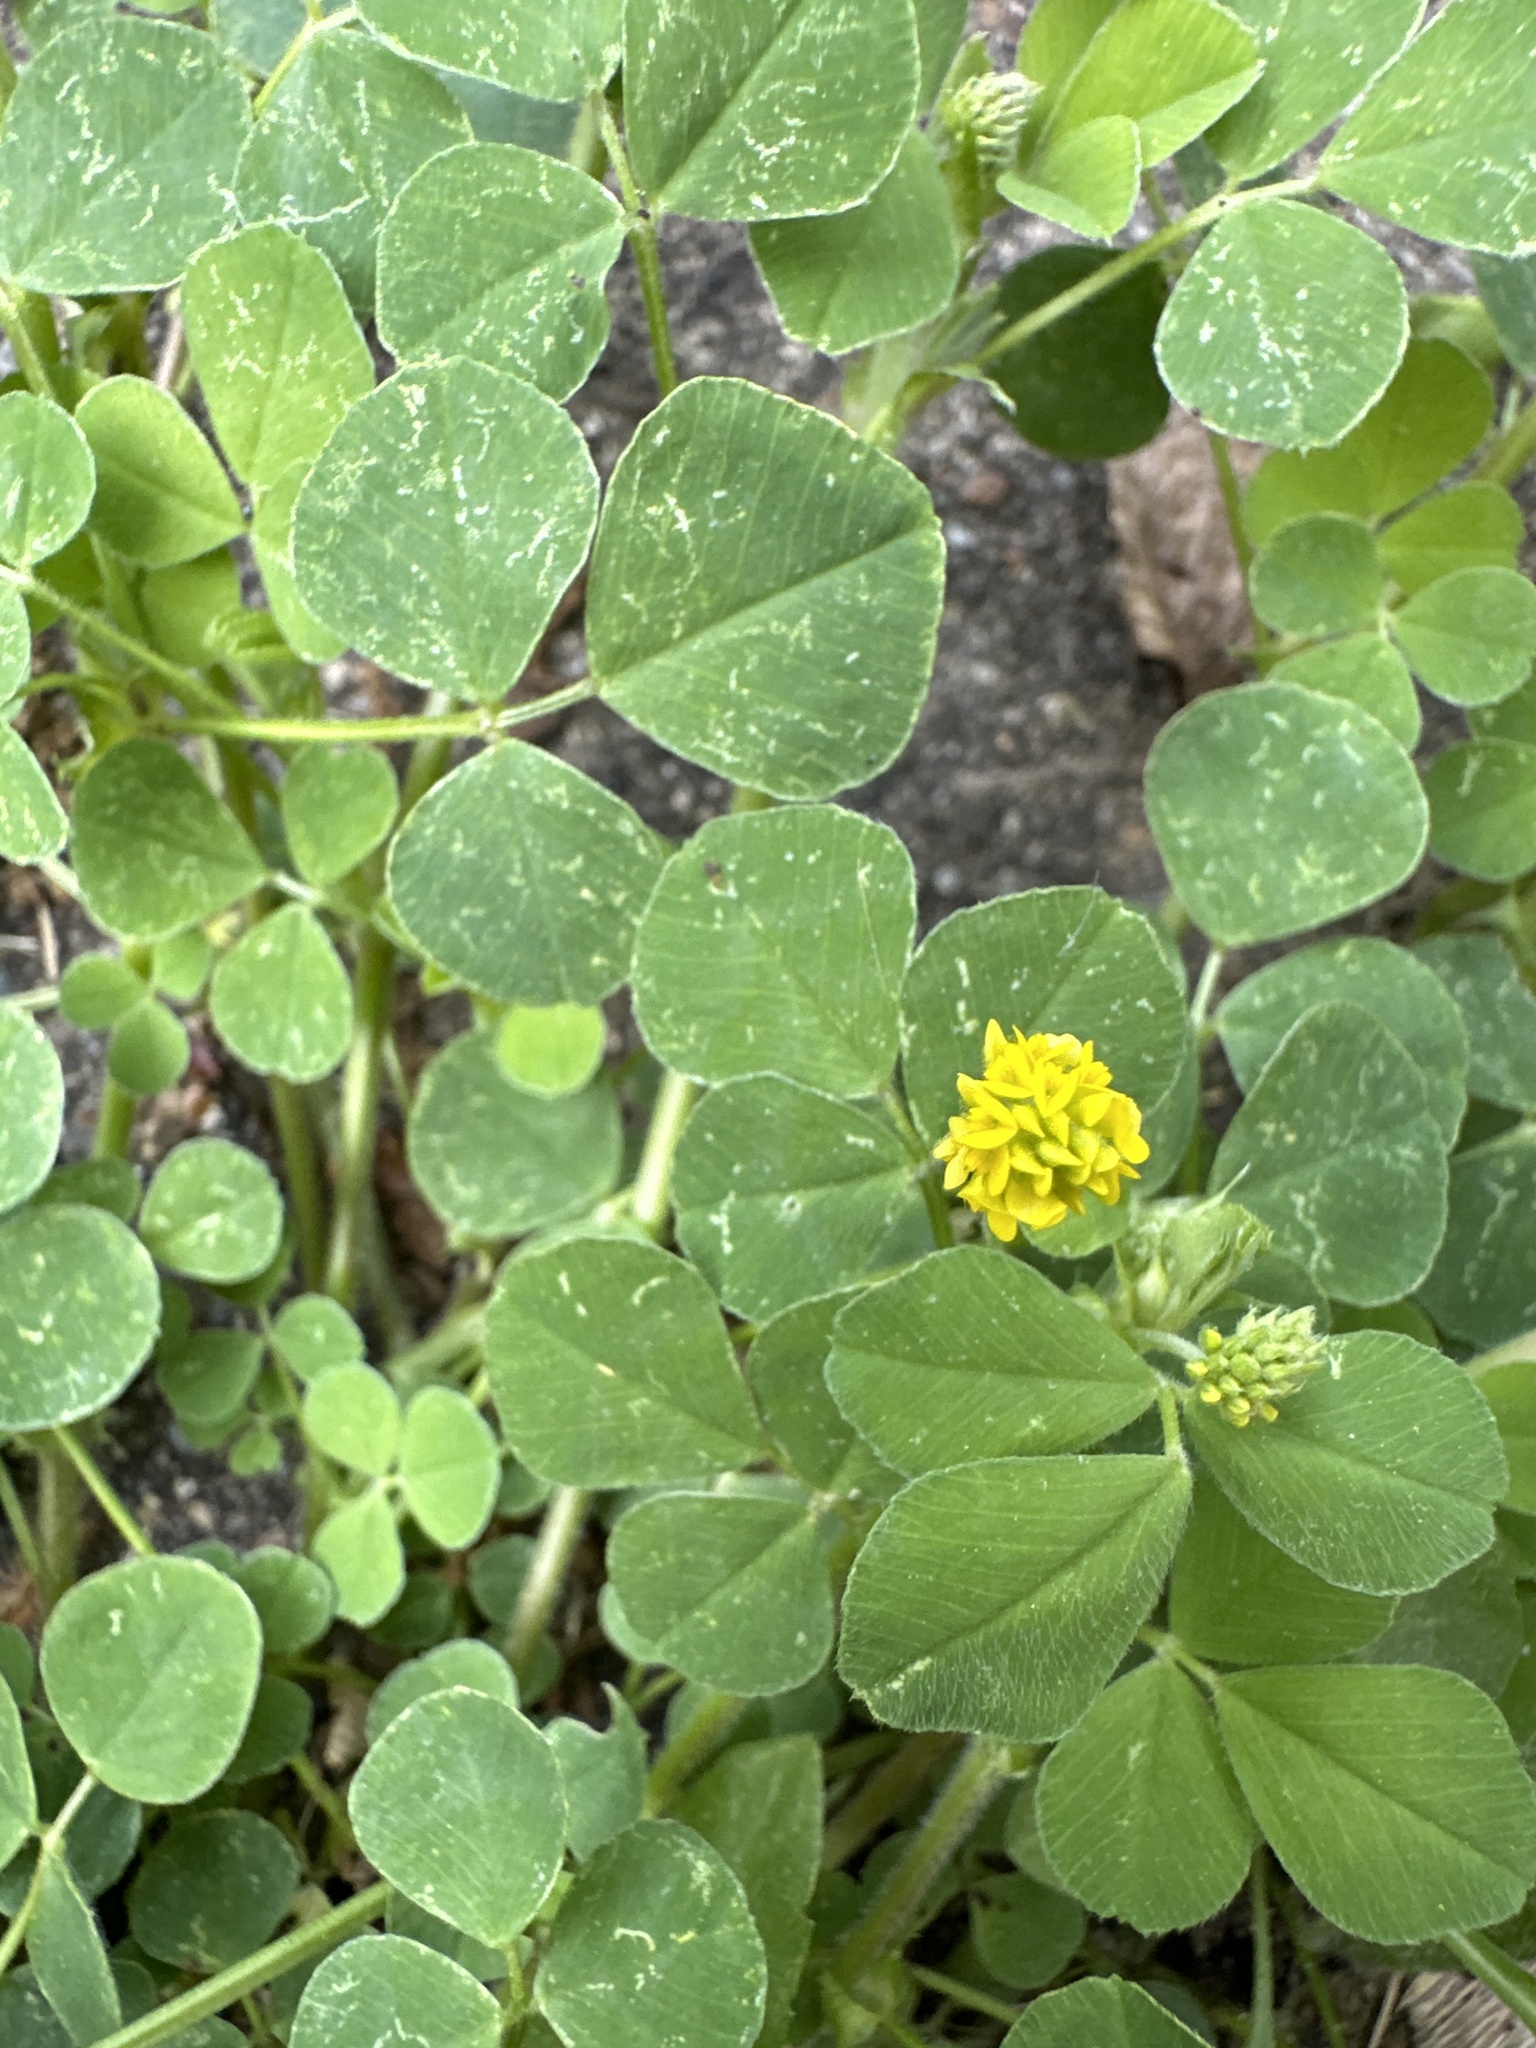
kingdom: Plantae
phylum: Tracheophyta
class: Magnoliopsida
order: Fabales
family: Fabaceae
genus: Medicago
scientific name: Medicago lupulina
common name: Black medick
